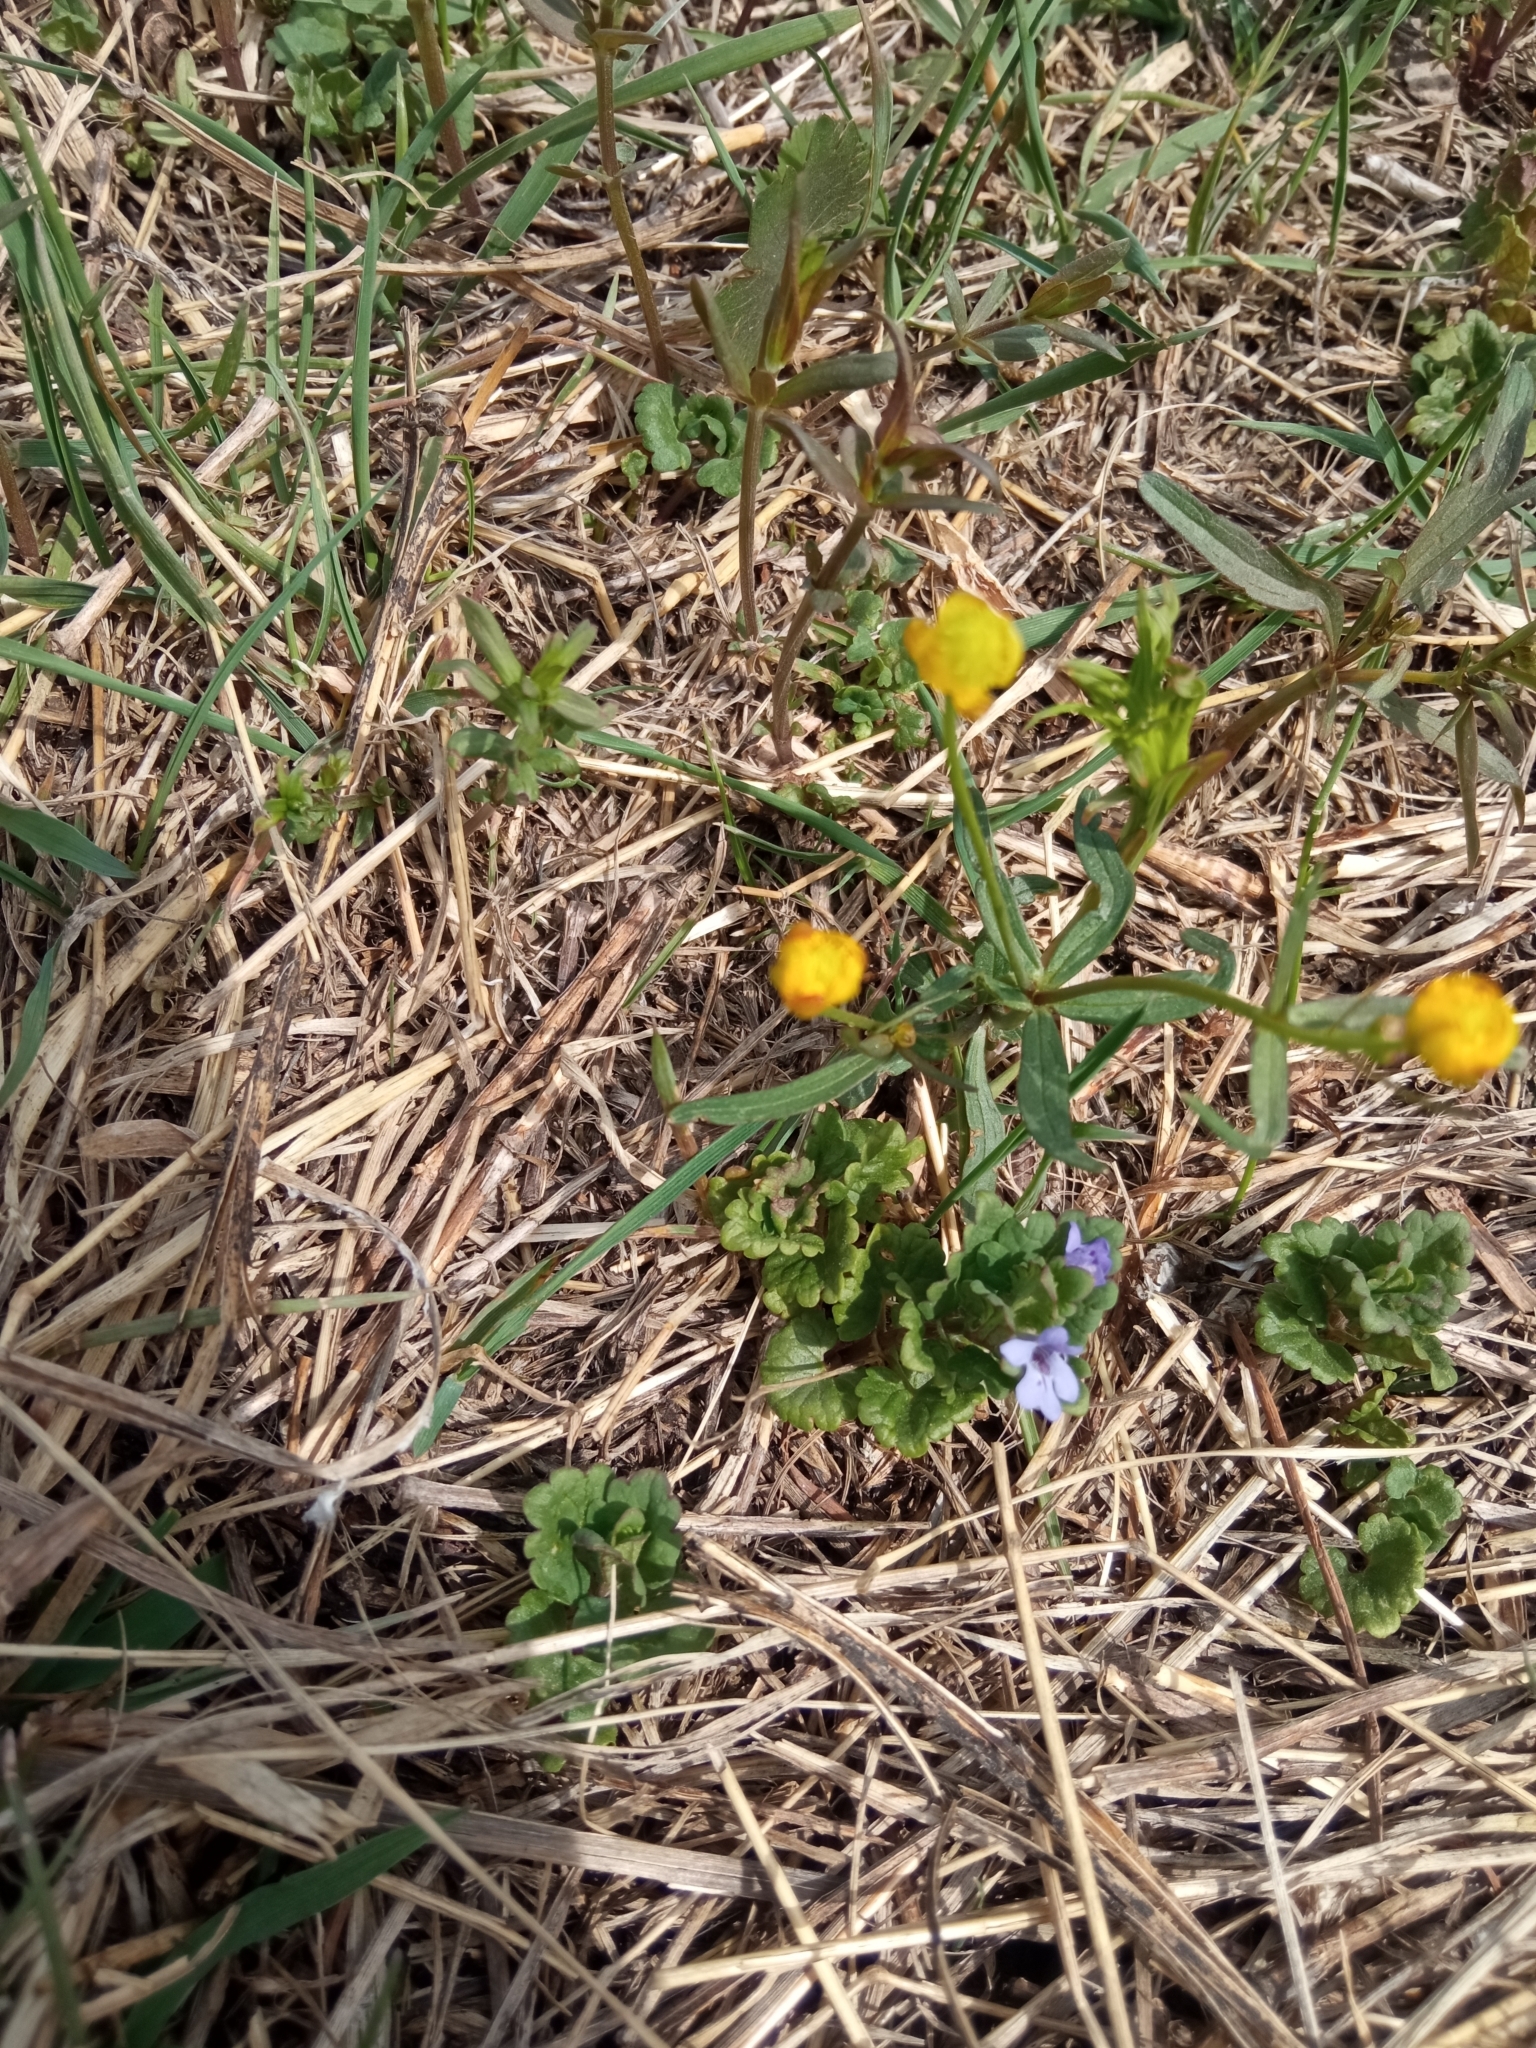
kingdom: Plantae
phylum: Tracheophyta
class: Magnoliopsida
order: Lamiales
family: Lamiaceae
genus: Glechoma
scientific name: Glechoma hederacea
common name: Ground ivy
